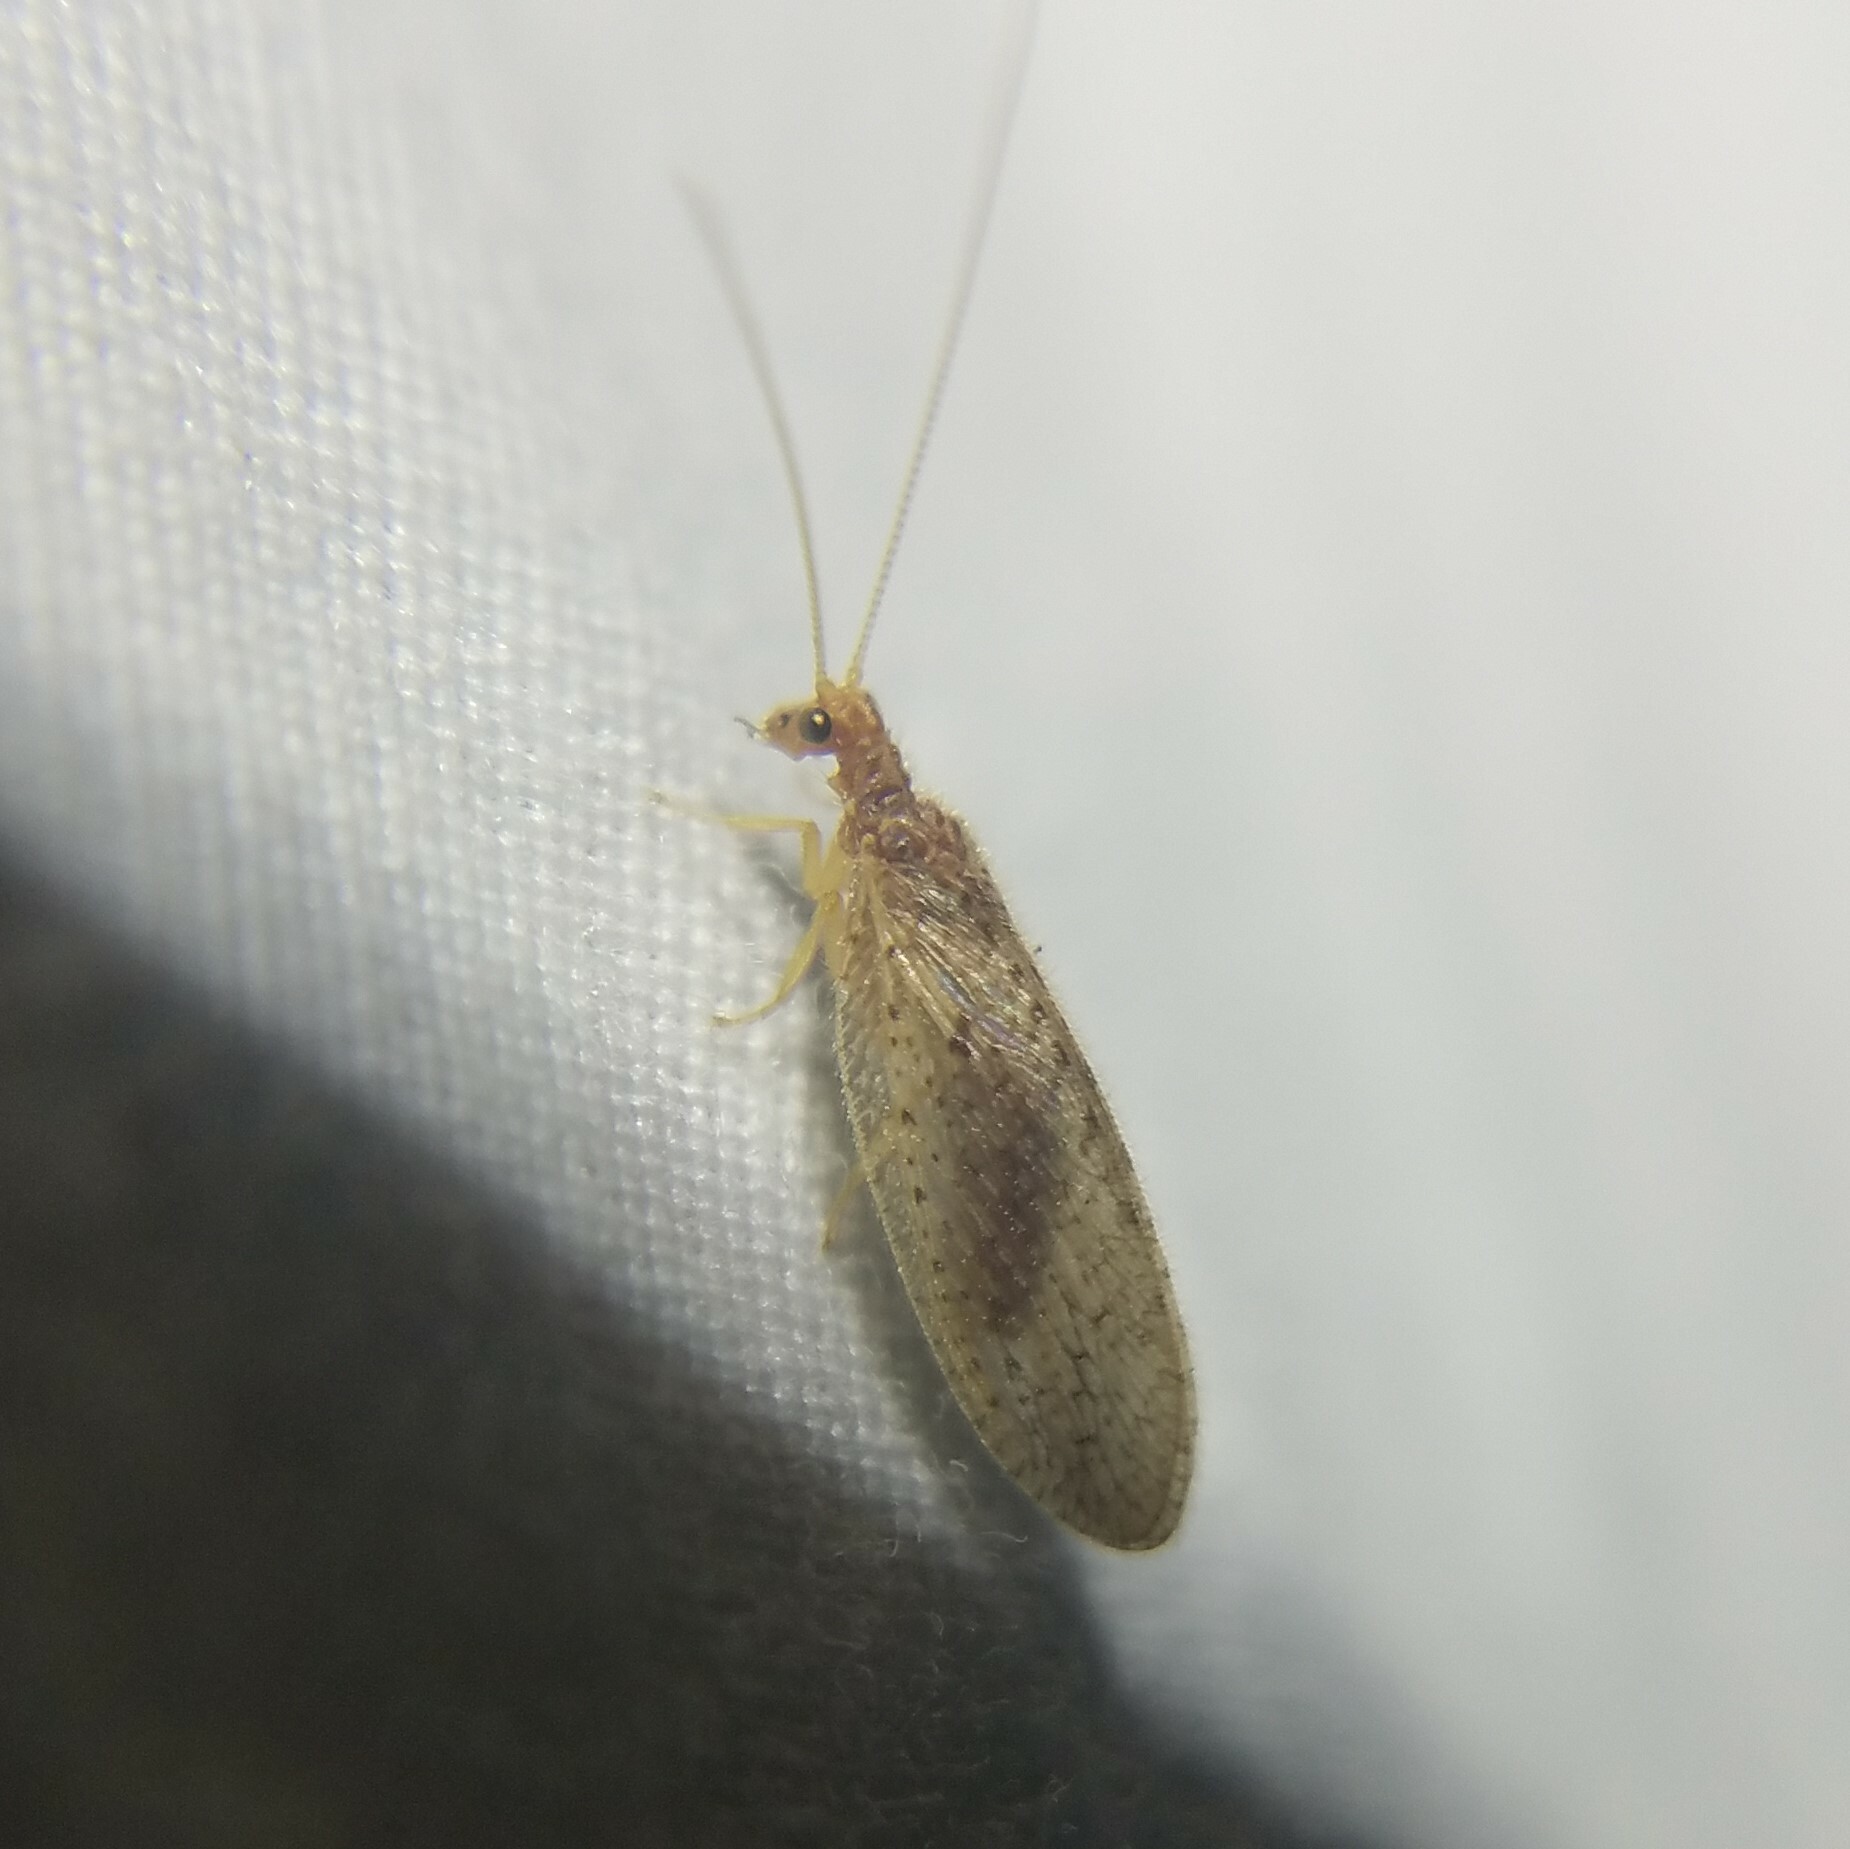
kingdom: Animalia
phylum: Arthropoda
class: Insecta
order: Neuroptera
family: Hemerobiidae
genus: Micromus
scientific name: Micromus subanticus
